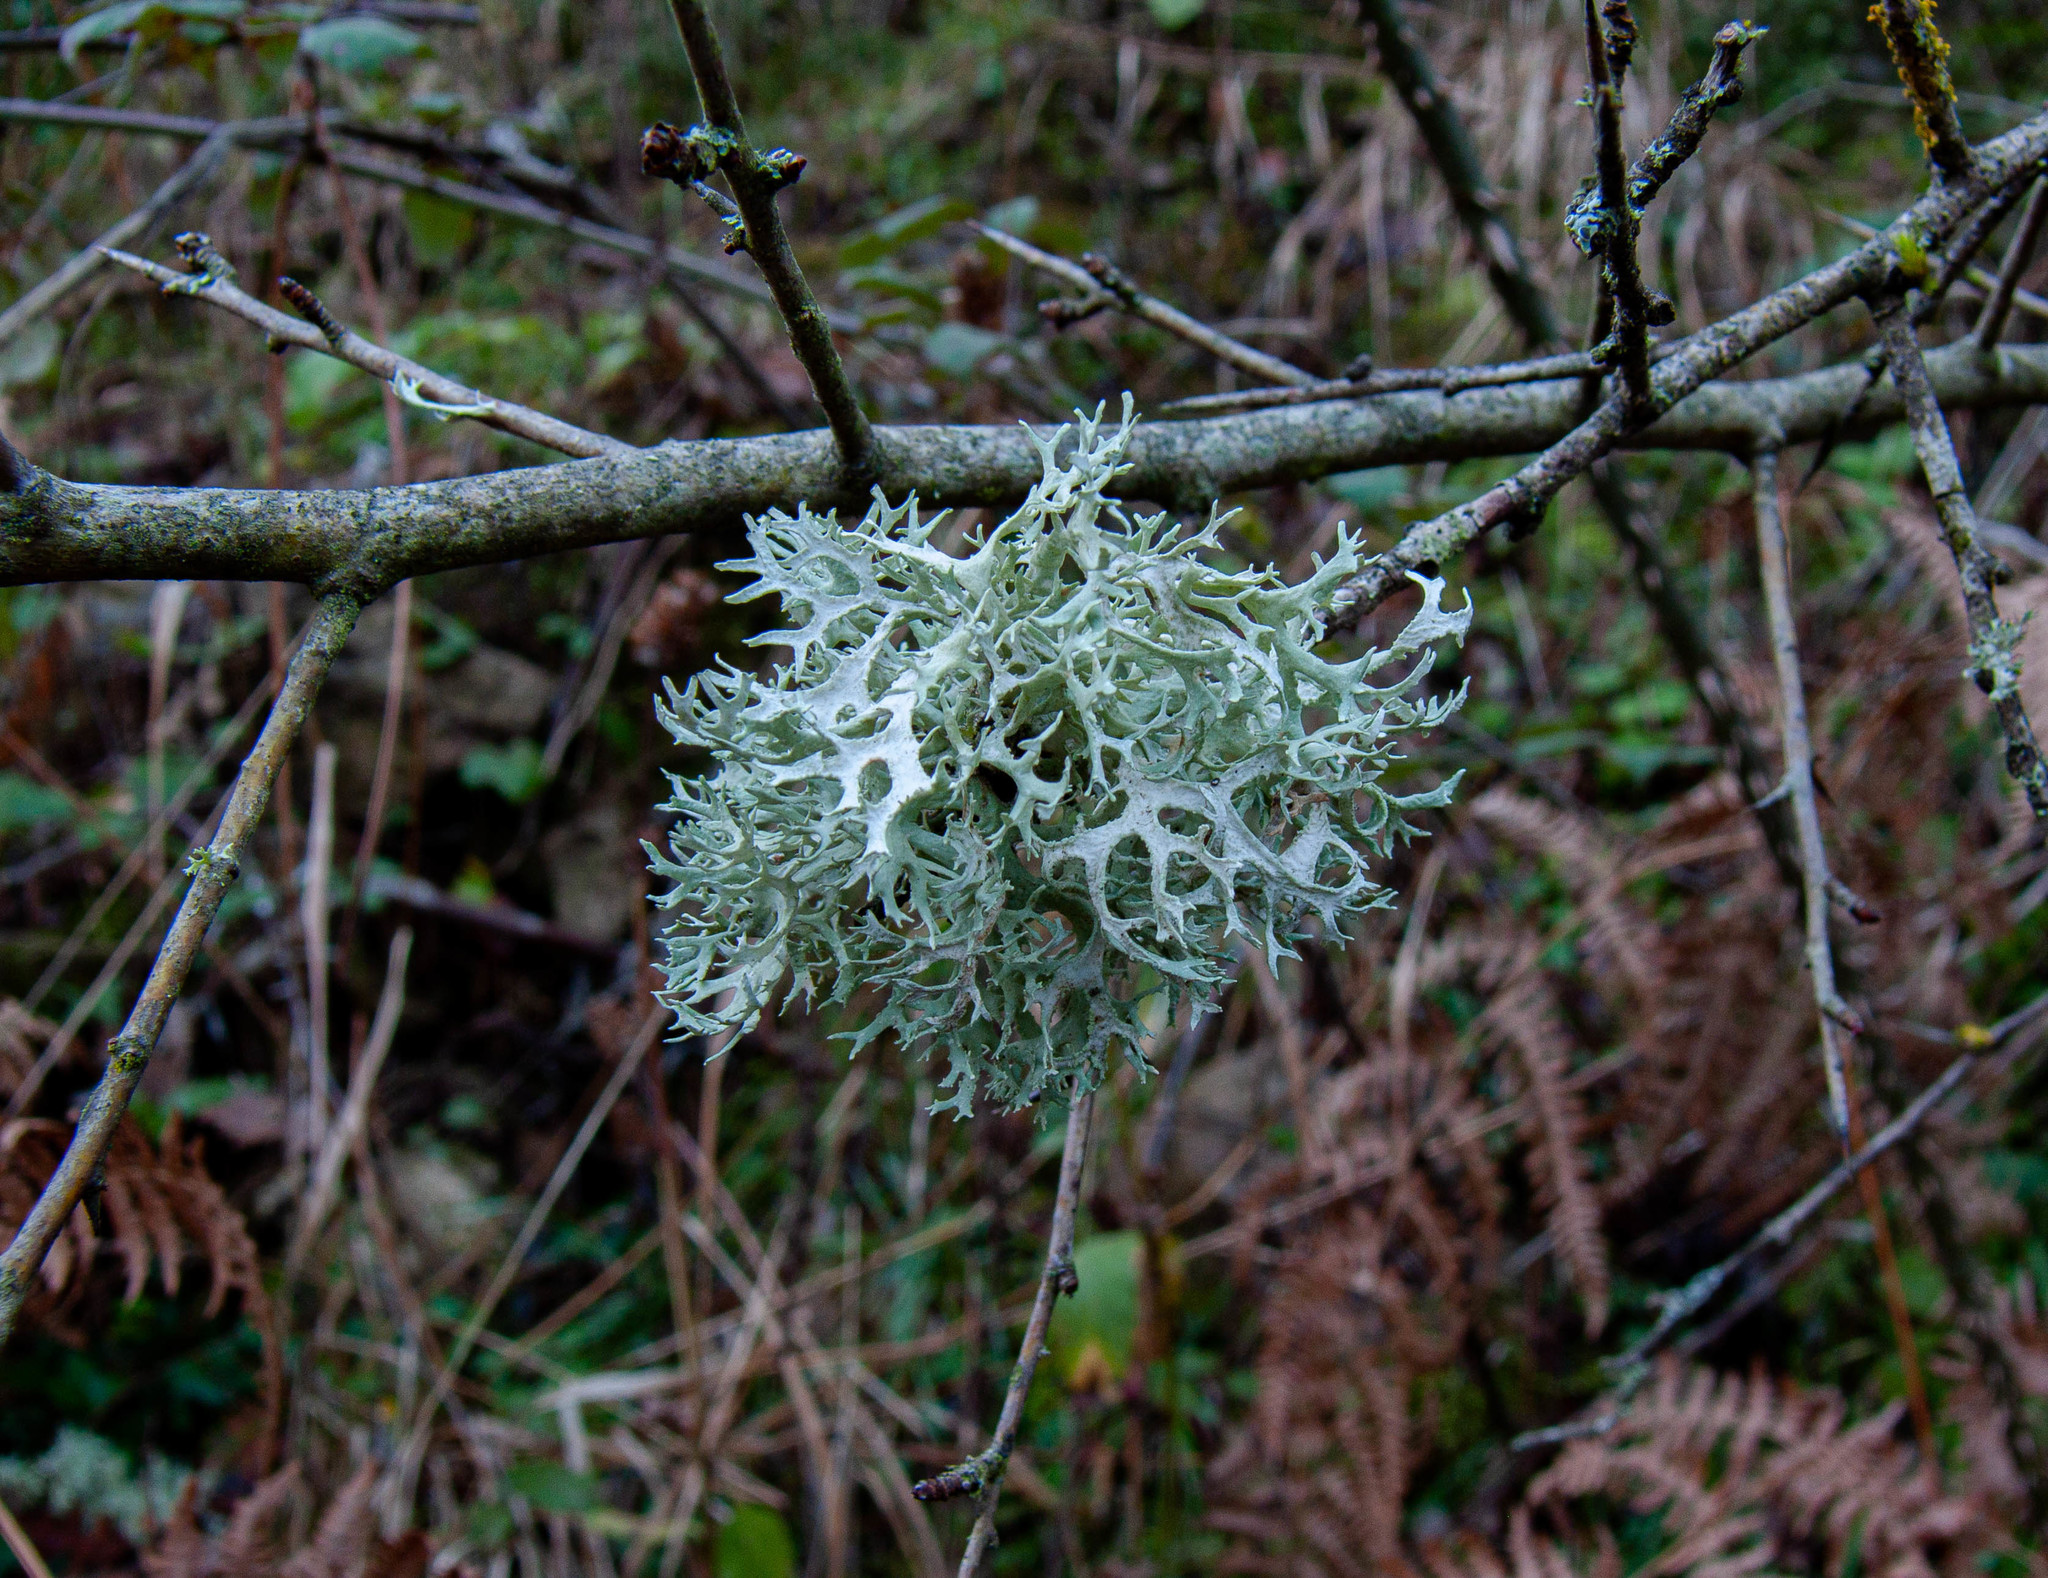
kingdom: Fungi
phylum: Ascomycota
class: Lecanoromycetes
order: Lecanorales
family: Parmeliaceae
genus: Evernia
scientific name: Evernia prunastri
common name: Oak moss
